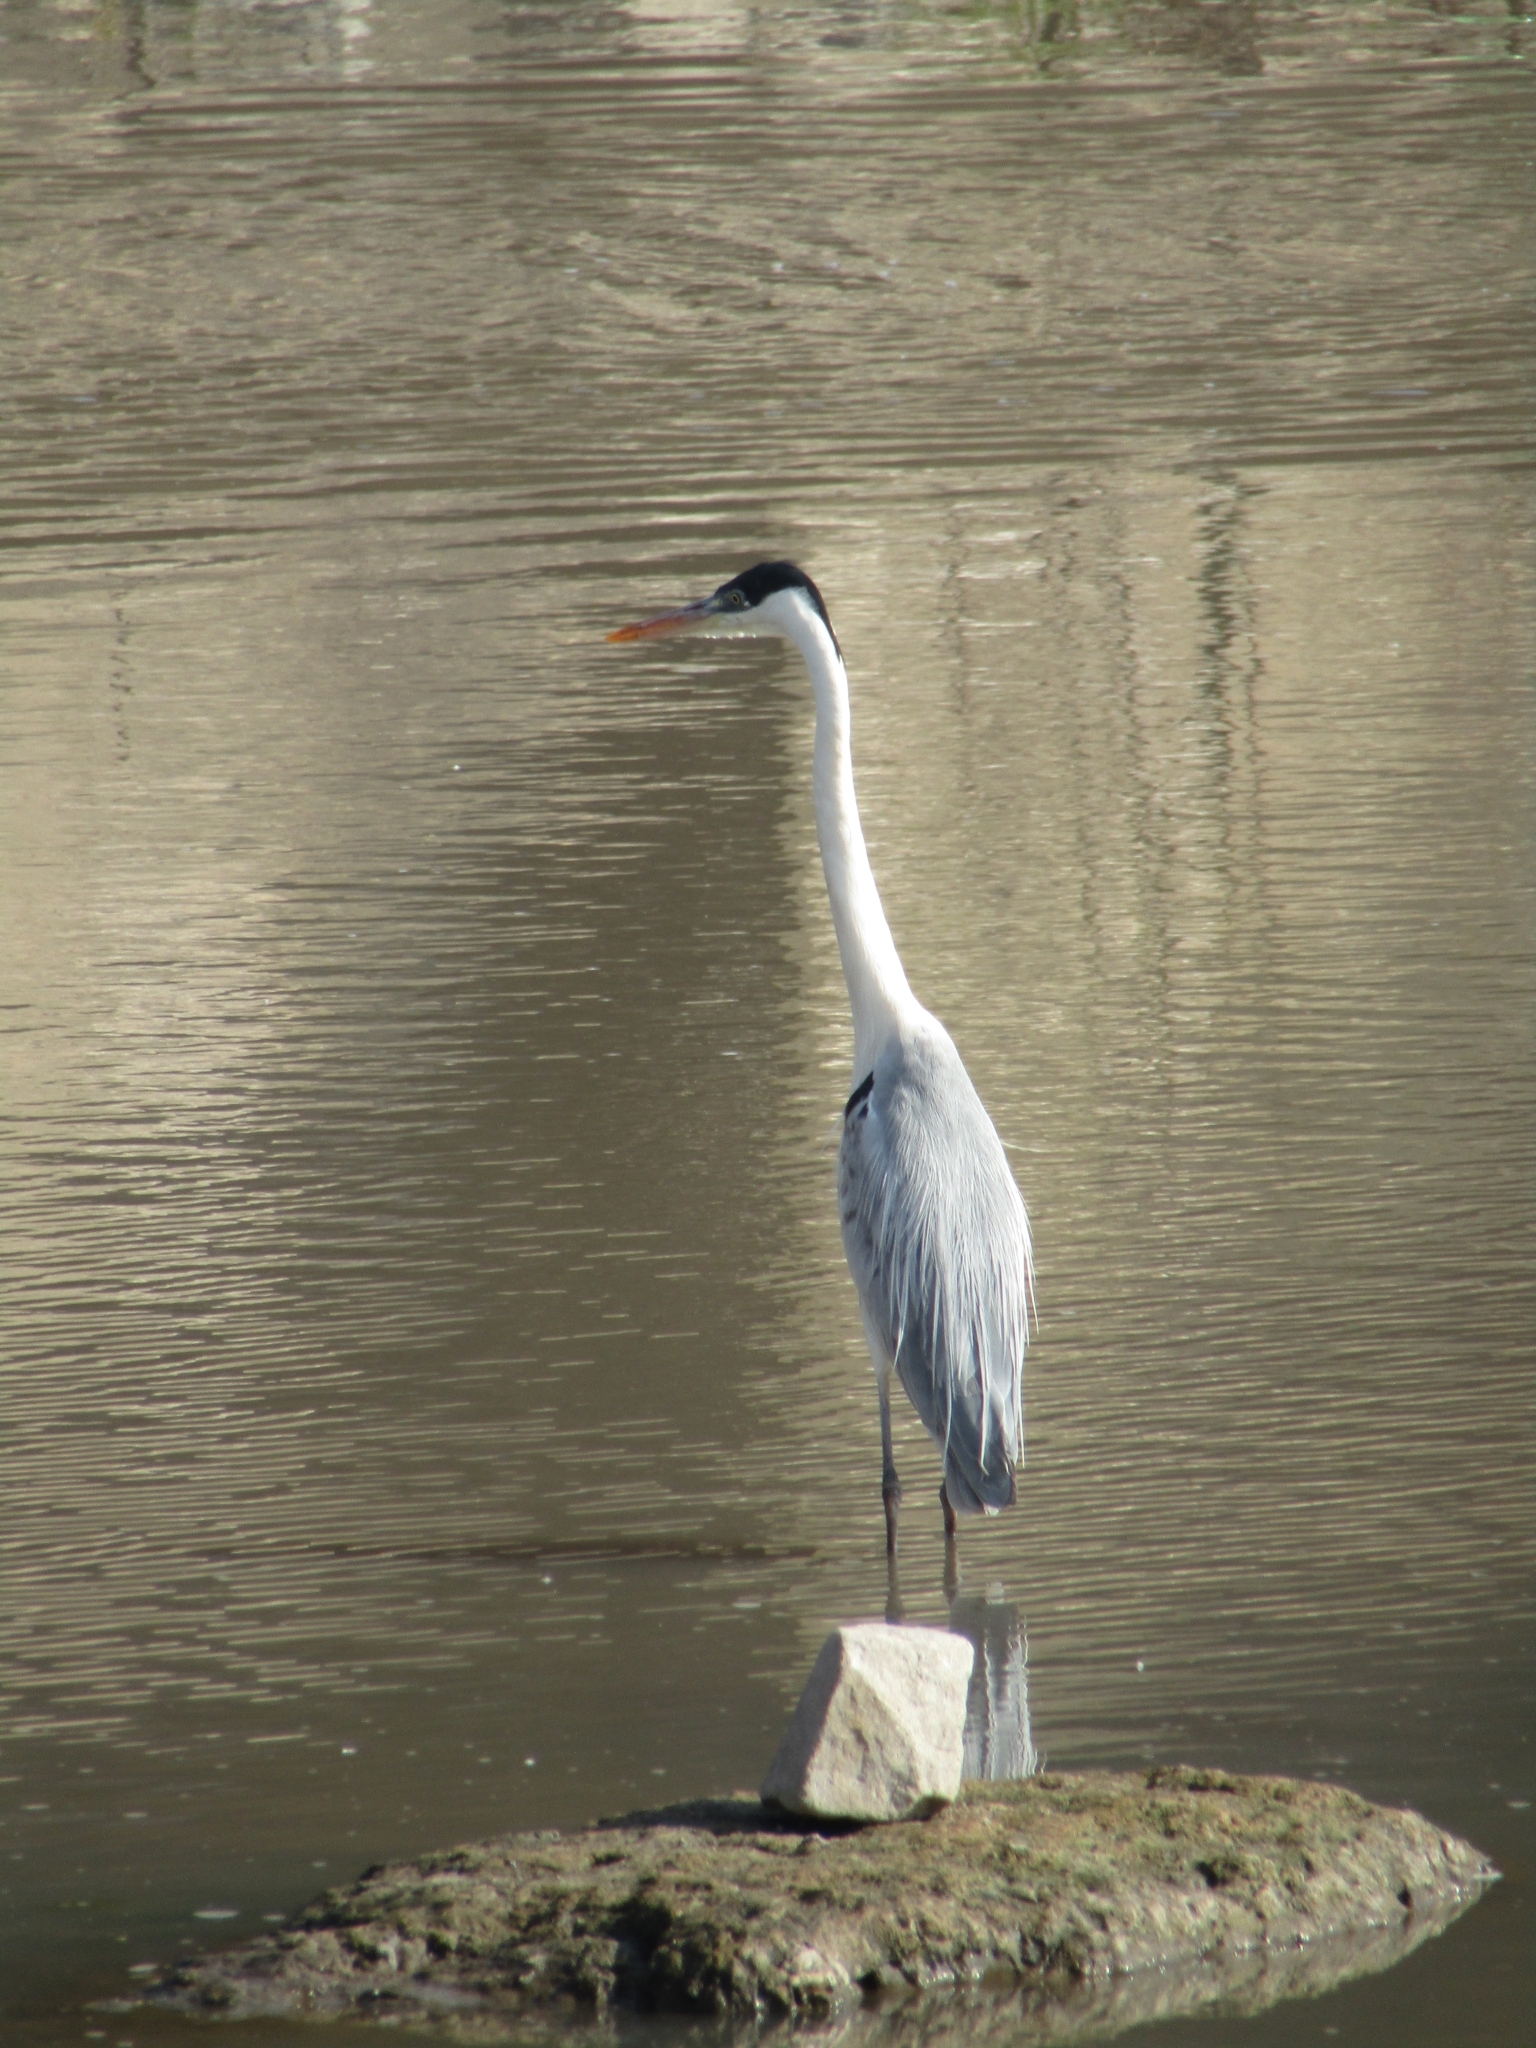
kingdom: Animalia
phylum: Chordata
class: Aves
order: Pelecaniformes
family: Ardeidae
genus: Ardea
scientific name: Ardea cocoi
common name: Cocoi heron
